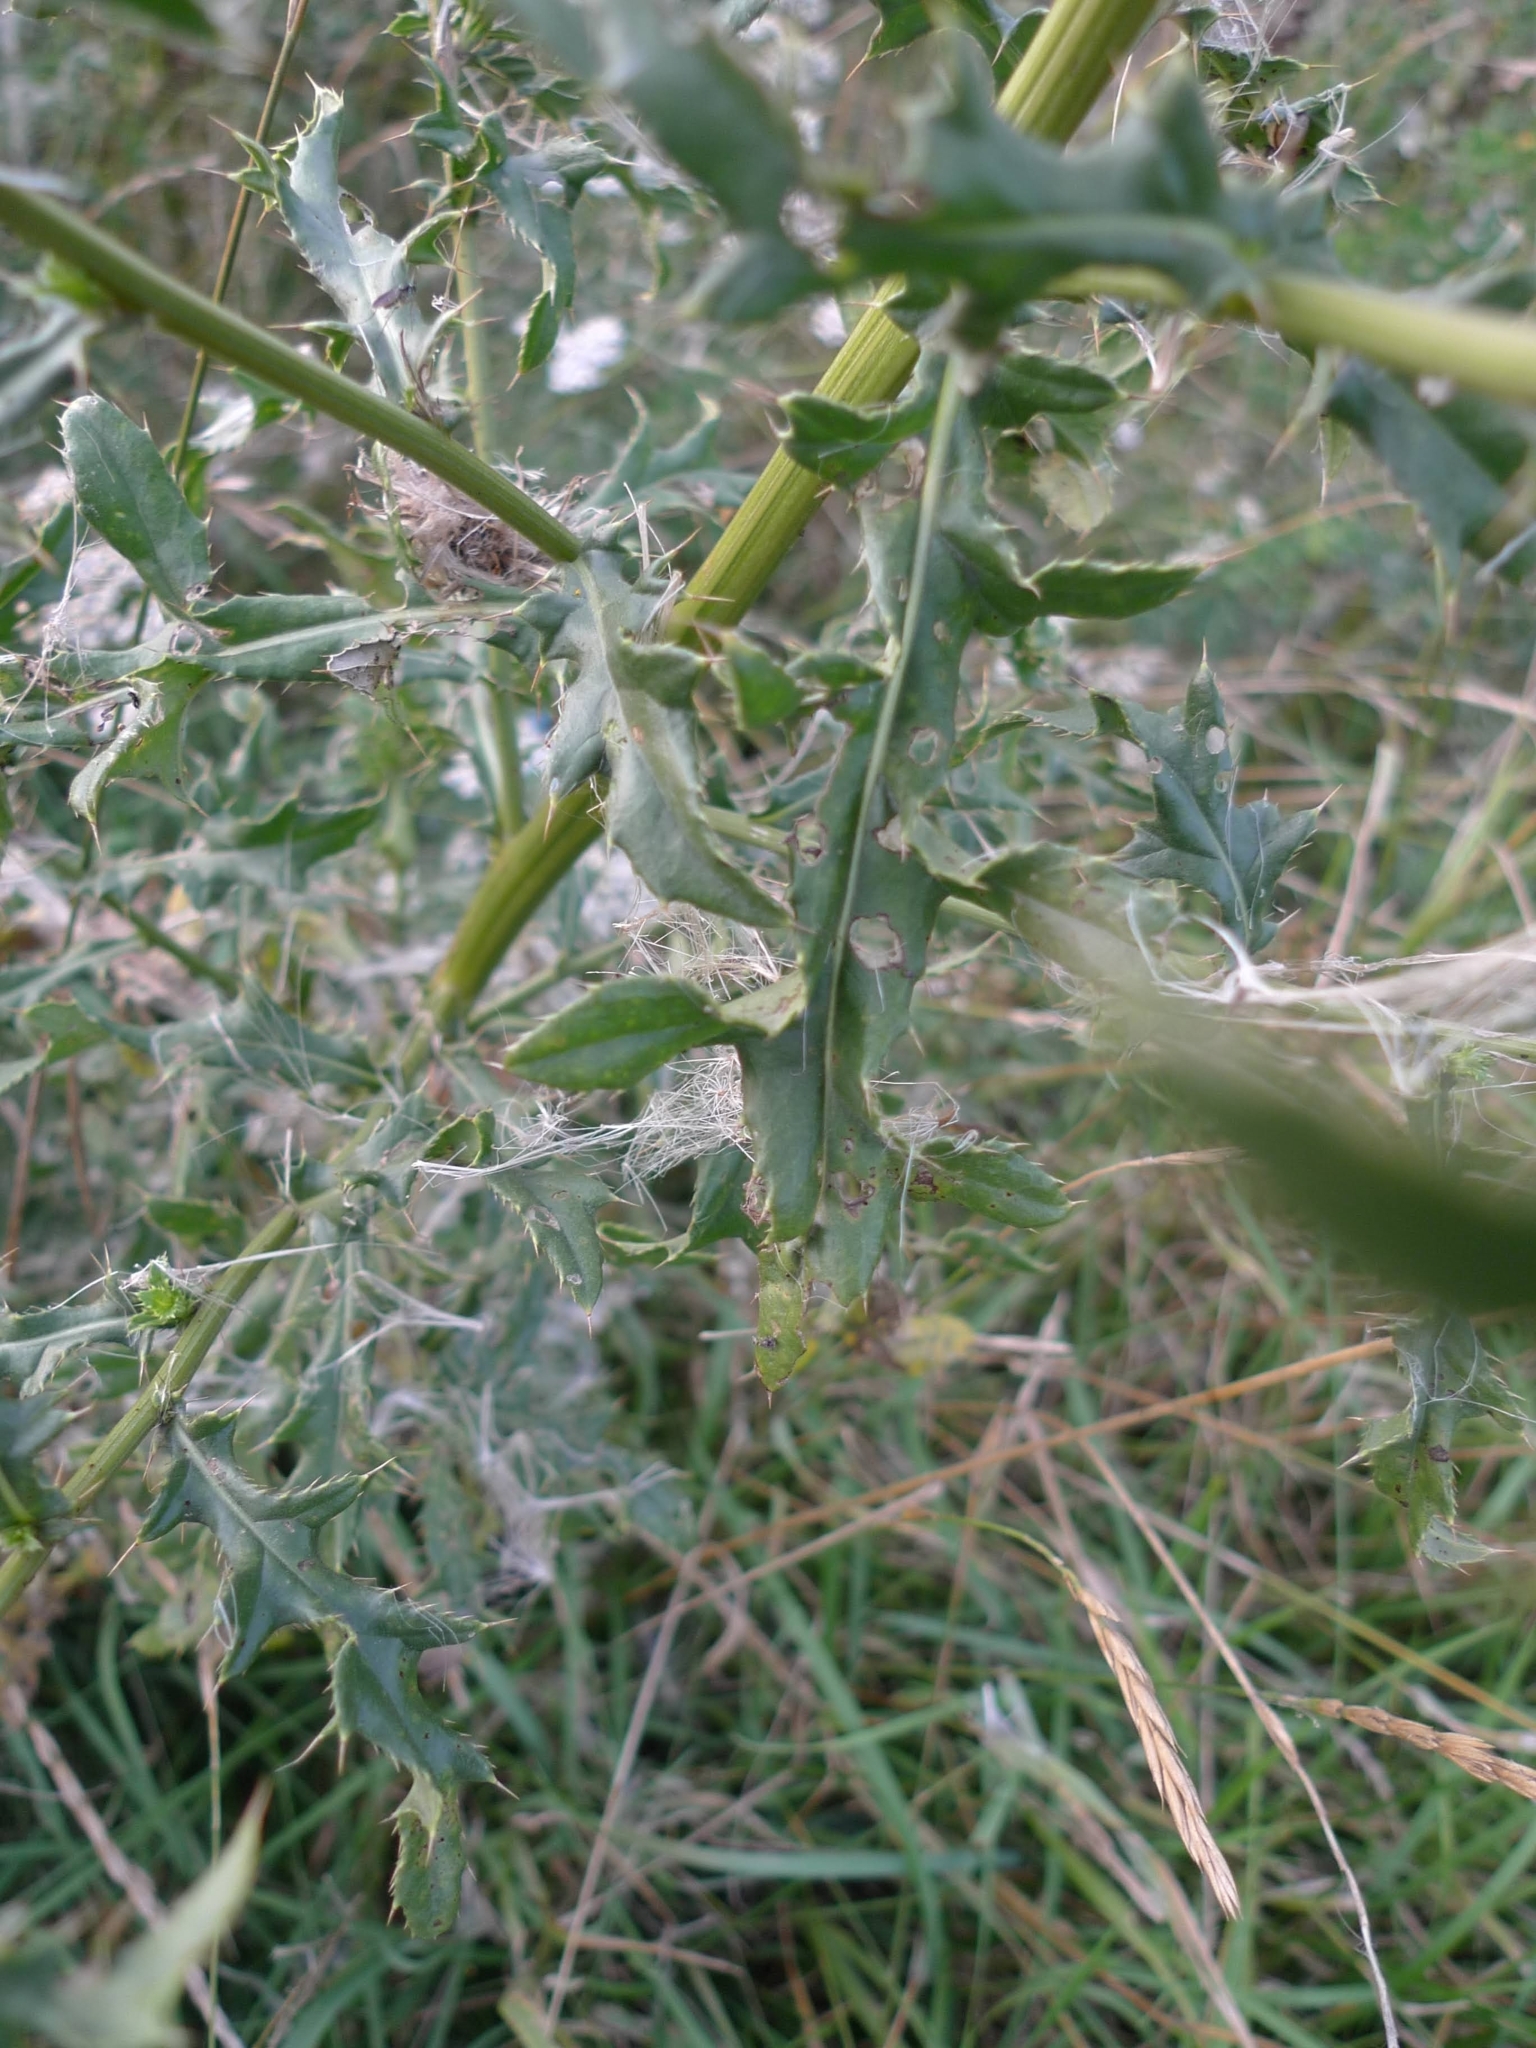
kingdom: Plantae
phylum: Tracheophyta
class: Magnoliopsida
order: Asterales
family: Asteraceae
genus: Cirsium
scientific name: Cirsium arvense
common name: Creeping thistle
